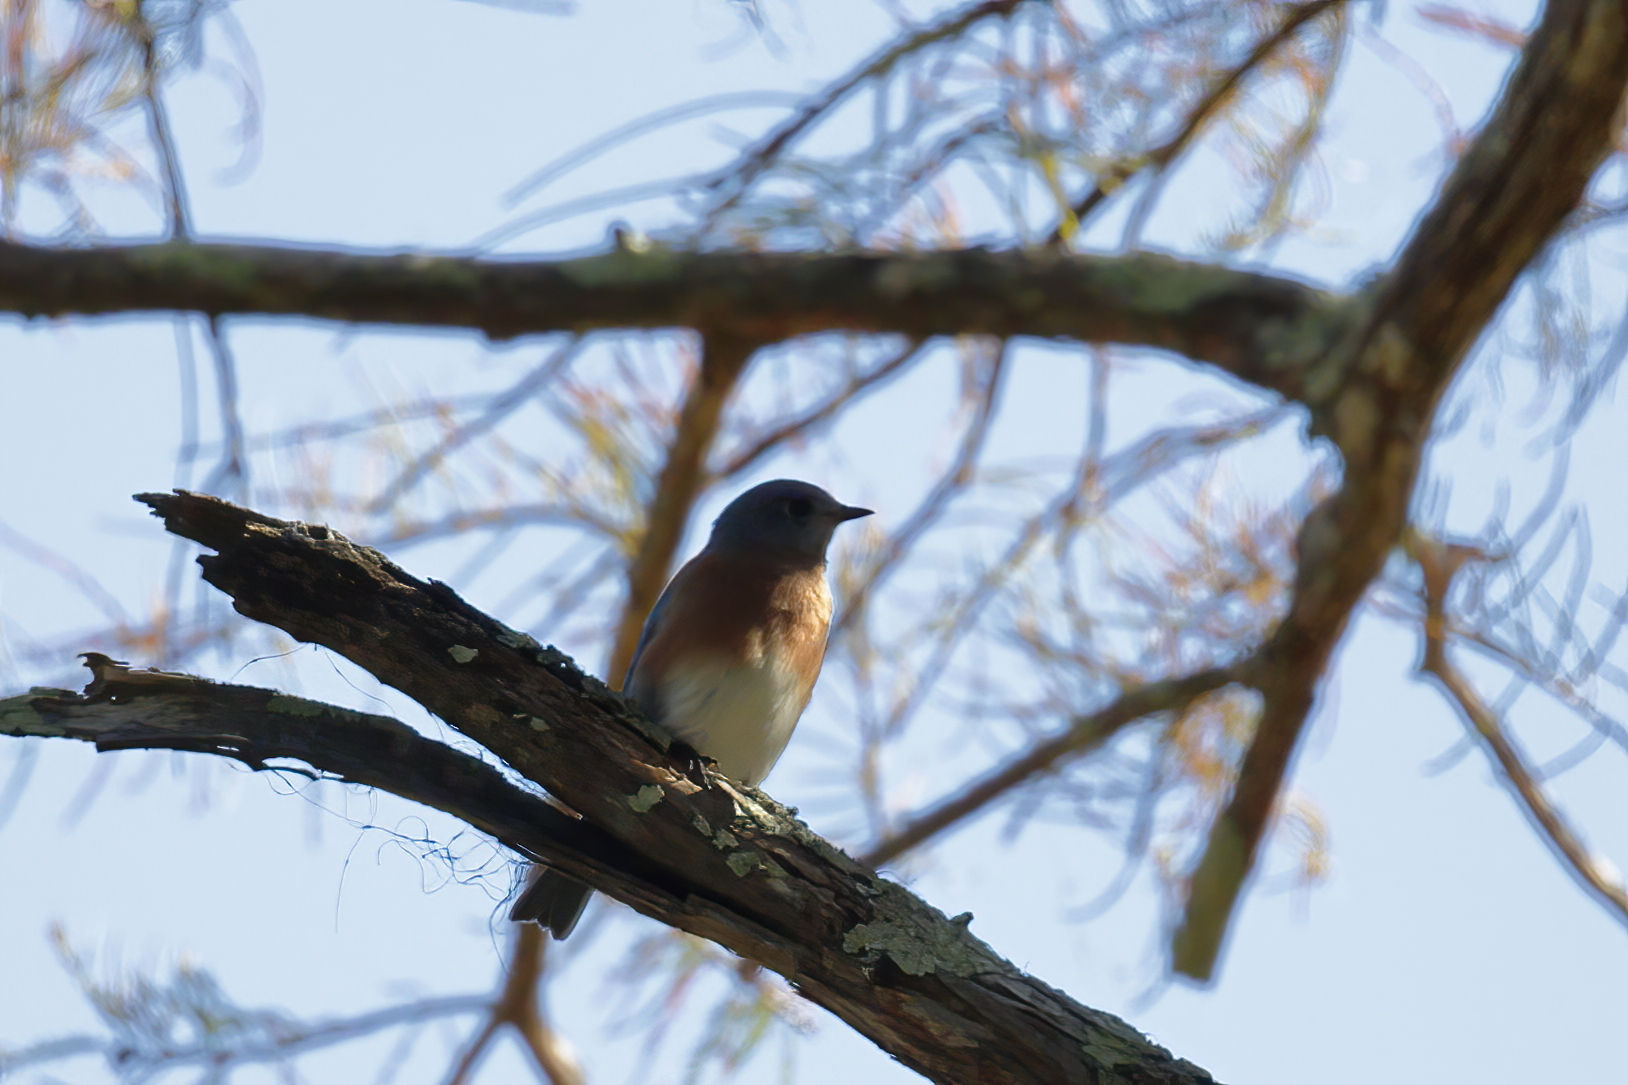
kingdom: Animalia
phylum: Chordata
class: Aves
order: Passeriformes
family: Turdidae
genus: Sialia
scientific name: Sialia sialis
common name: Eastern bluebird
